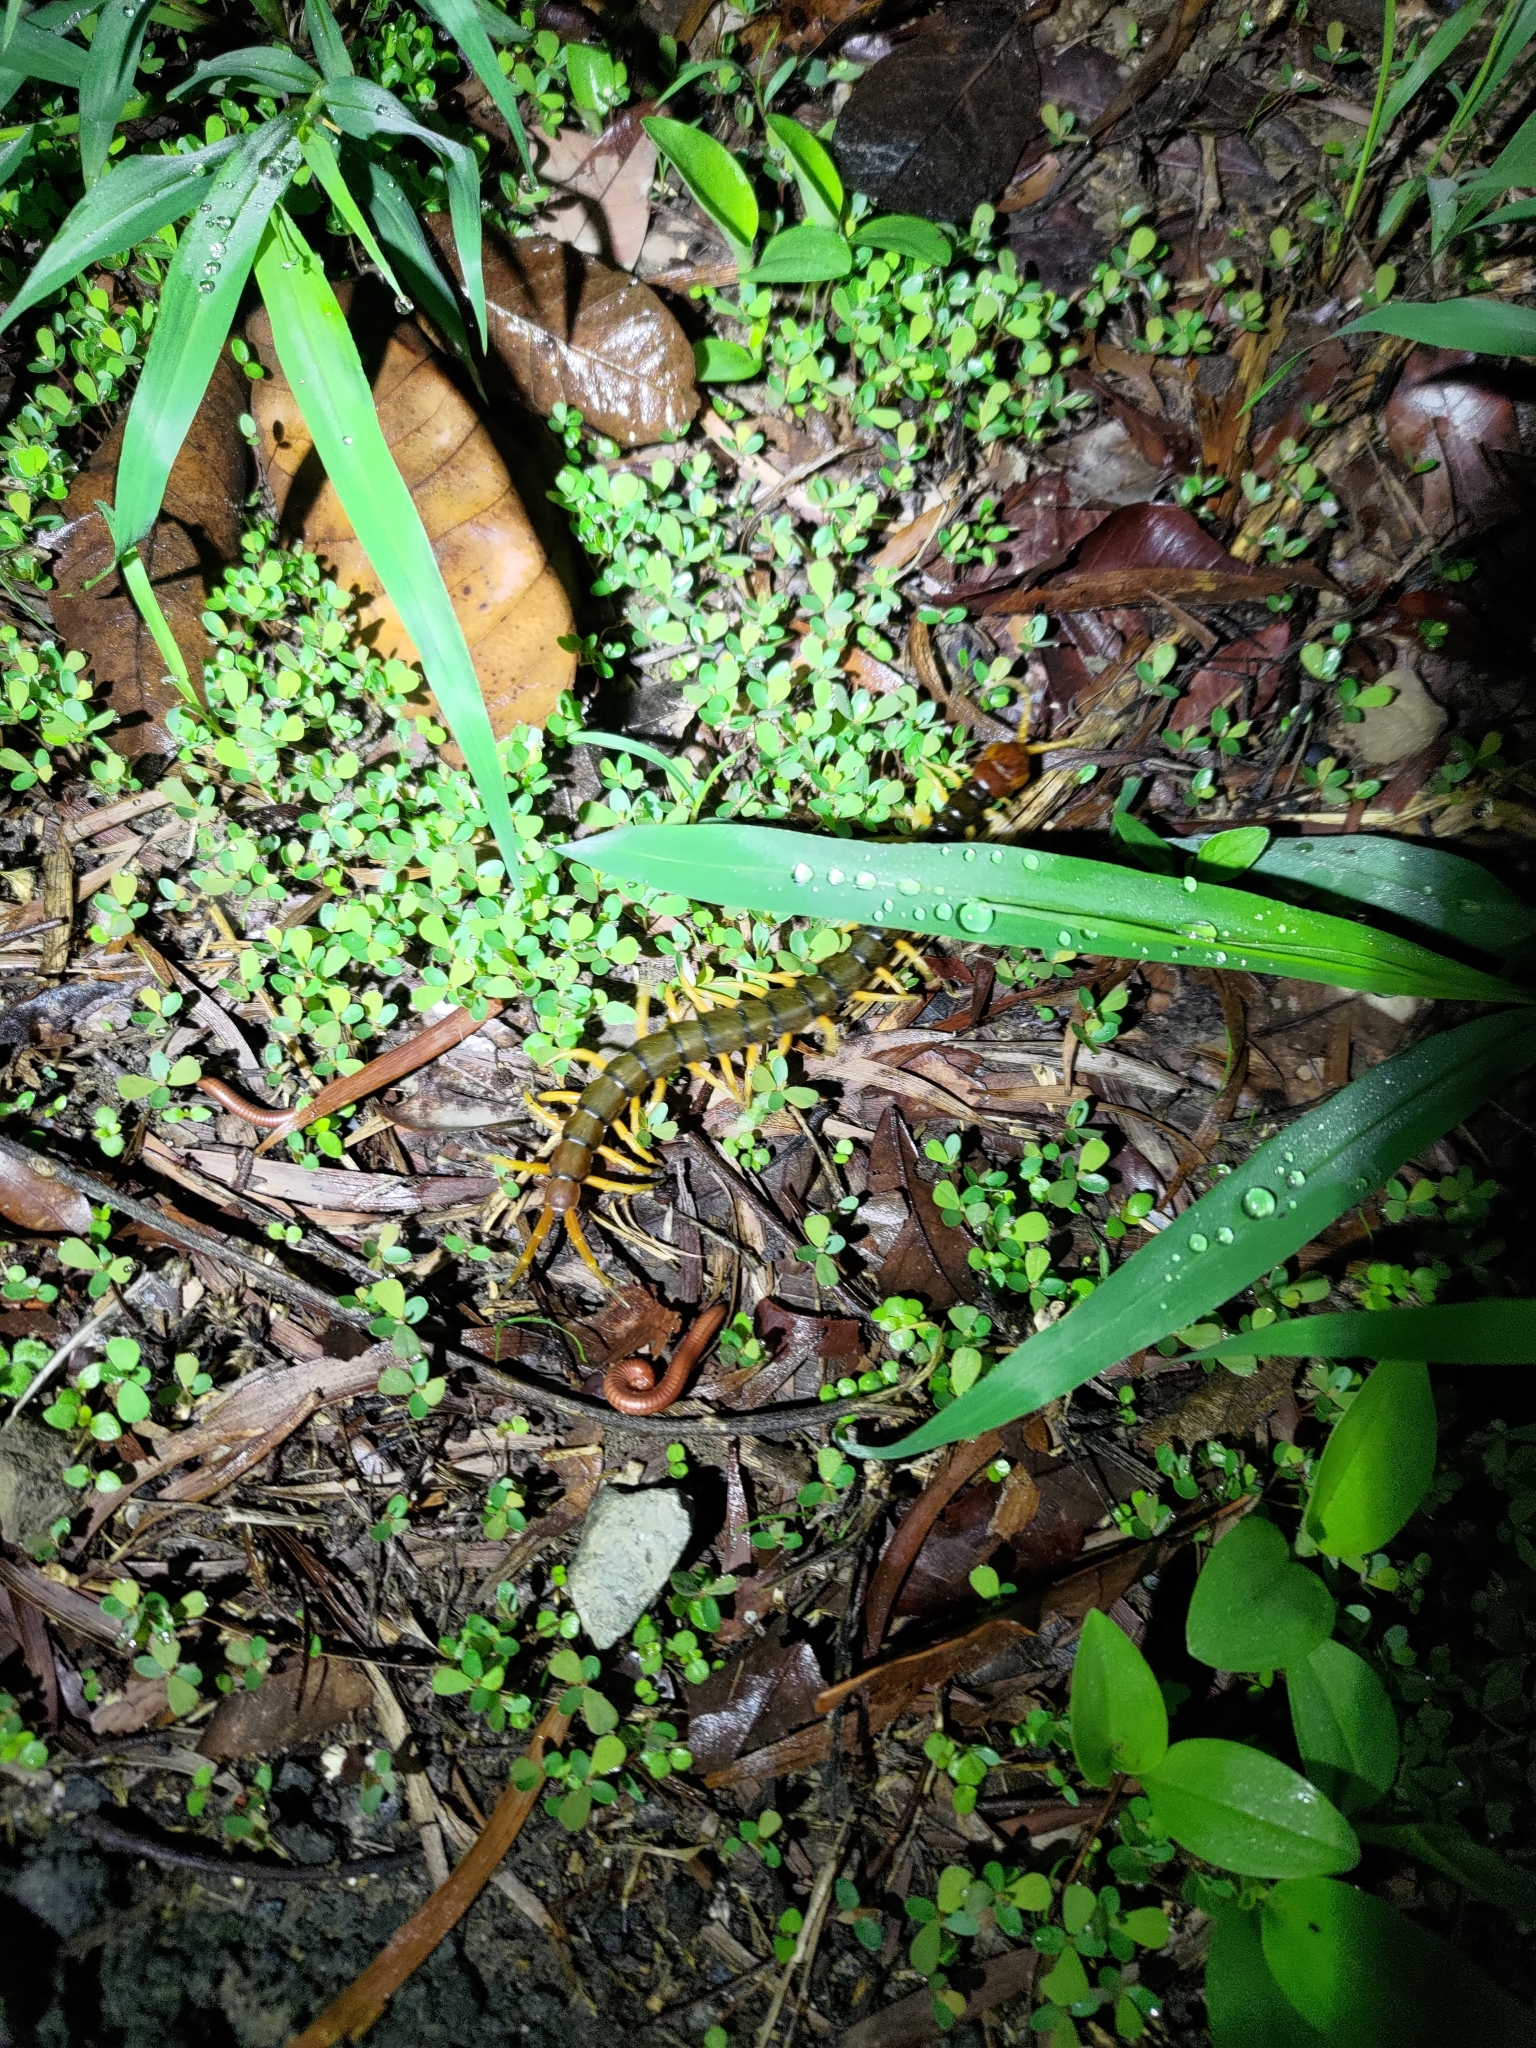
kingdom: Animalia
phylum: Arthropoda
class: Chilopoda
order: Scolopendromorpha
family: Scolopendridae
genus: Scolopendra
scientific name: Scolopendra mutilans
